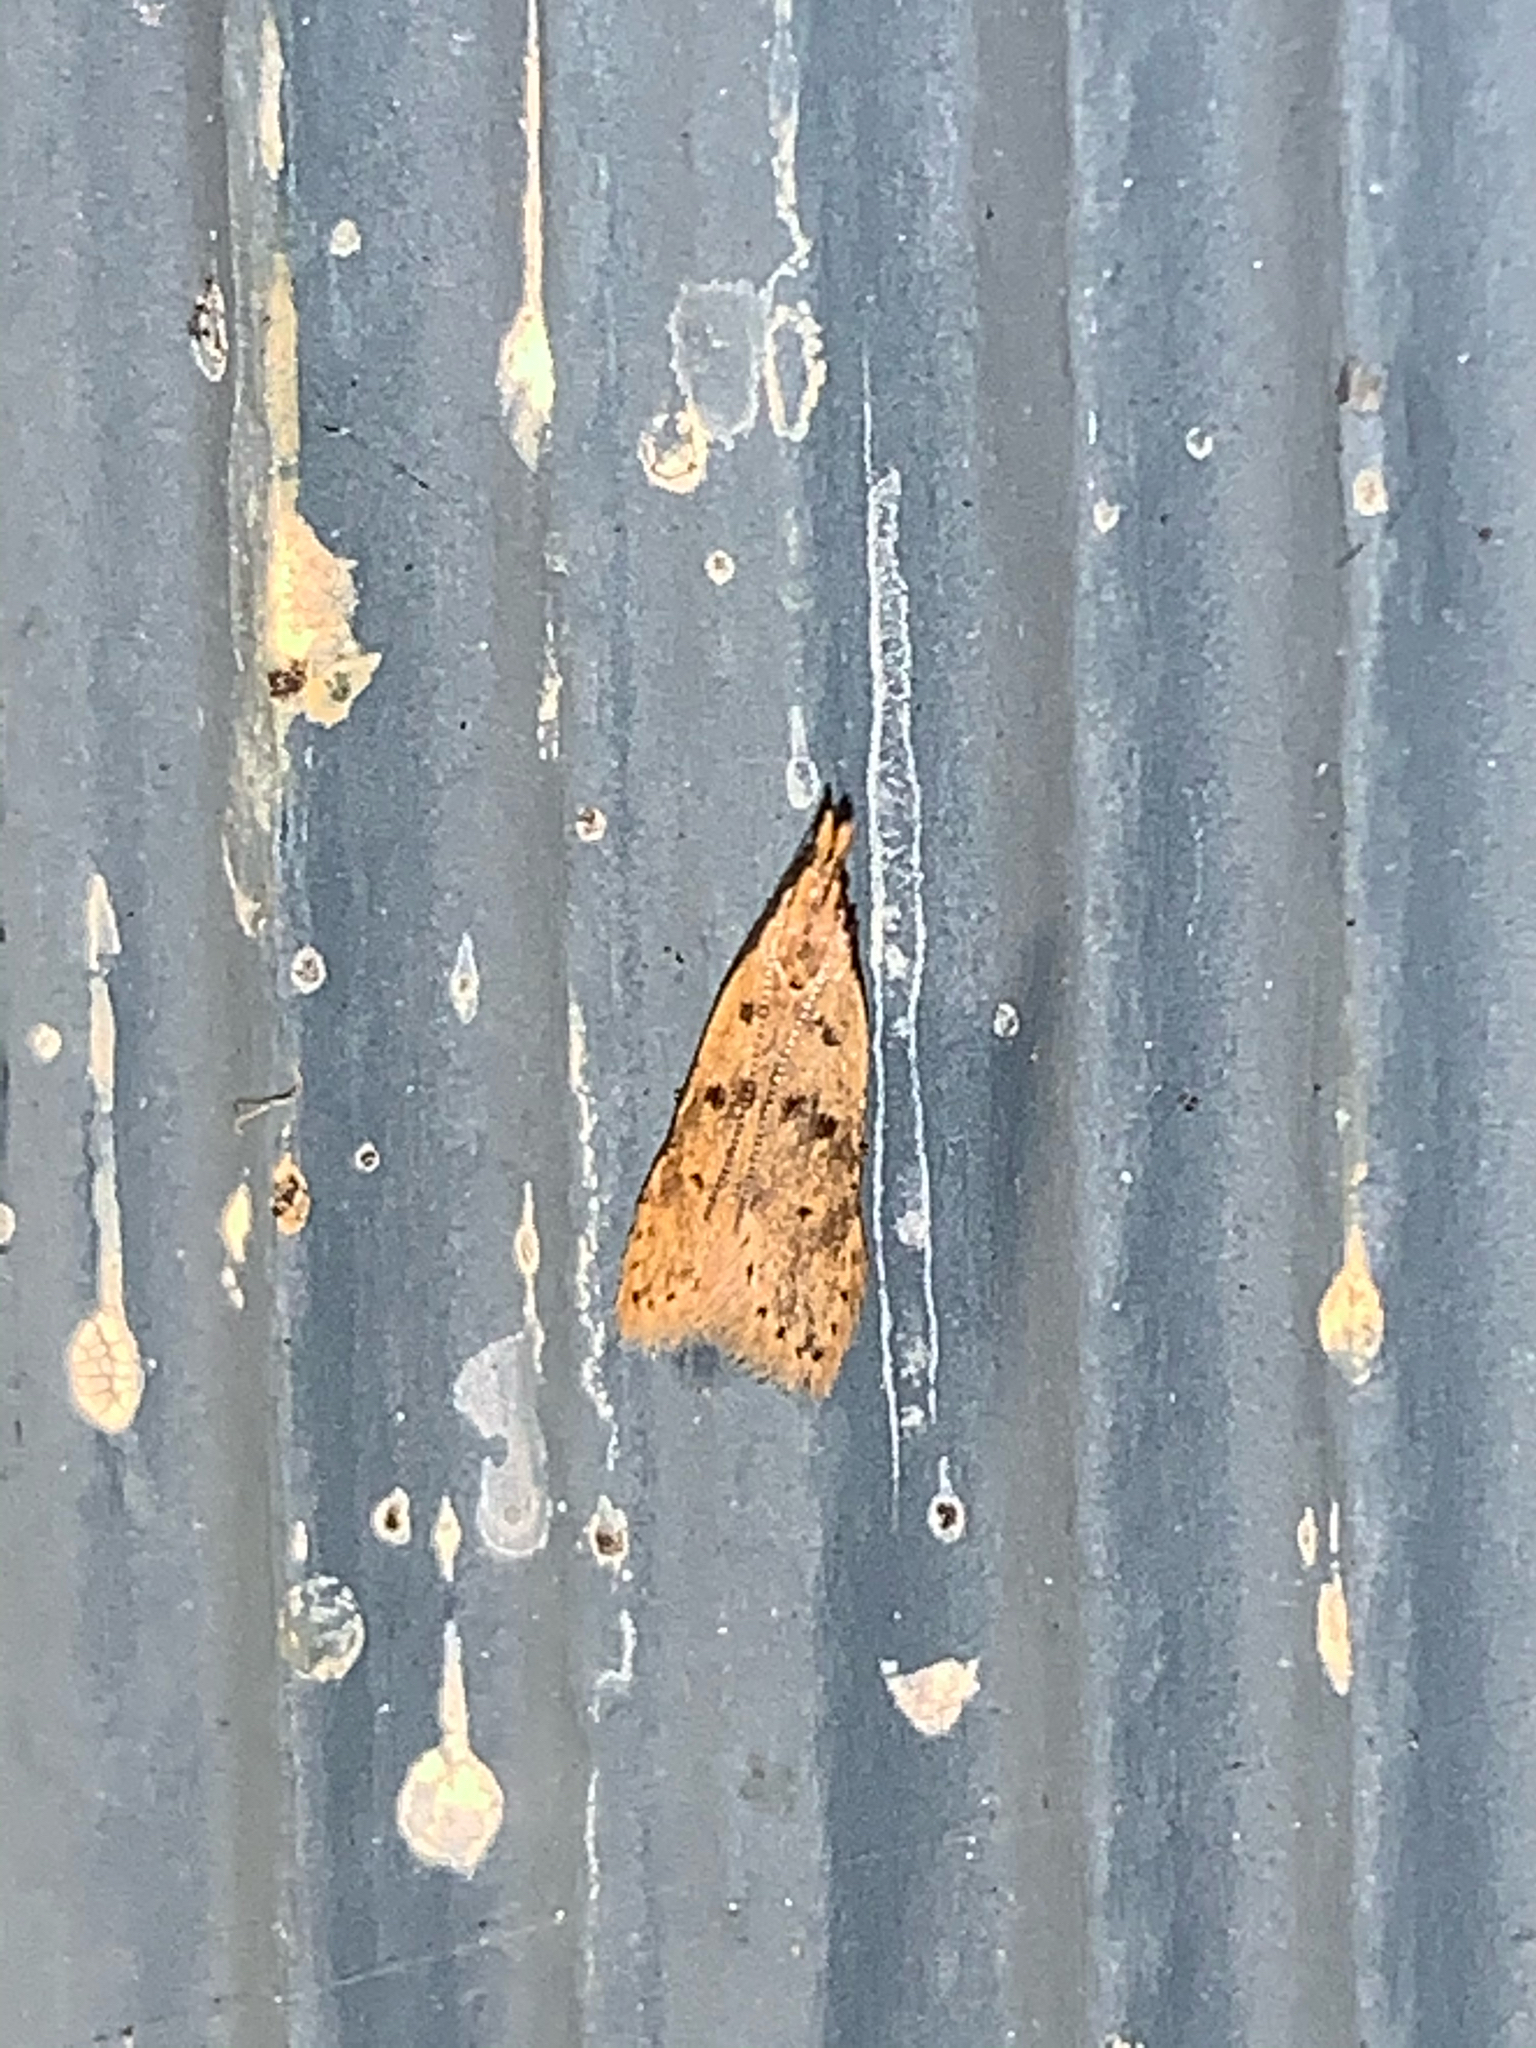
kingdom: Animalia
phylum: Arthropoda
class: Insecta
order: Lepidoptera
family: Gelechiidae
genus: Dichomeris
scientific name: Dichomeris punctipennella
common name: Many-spotted dichomeris moth
